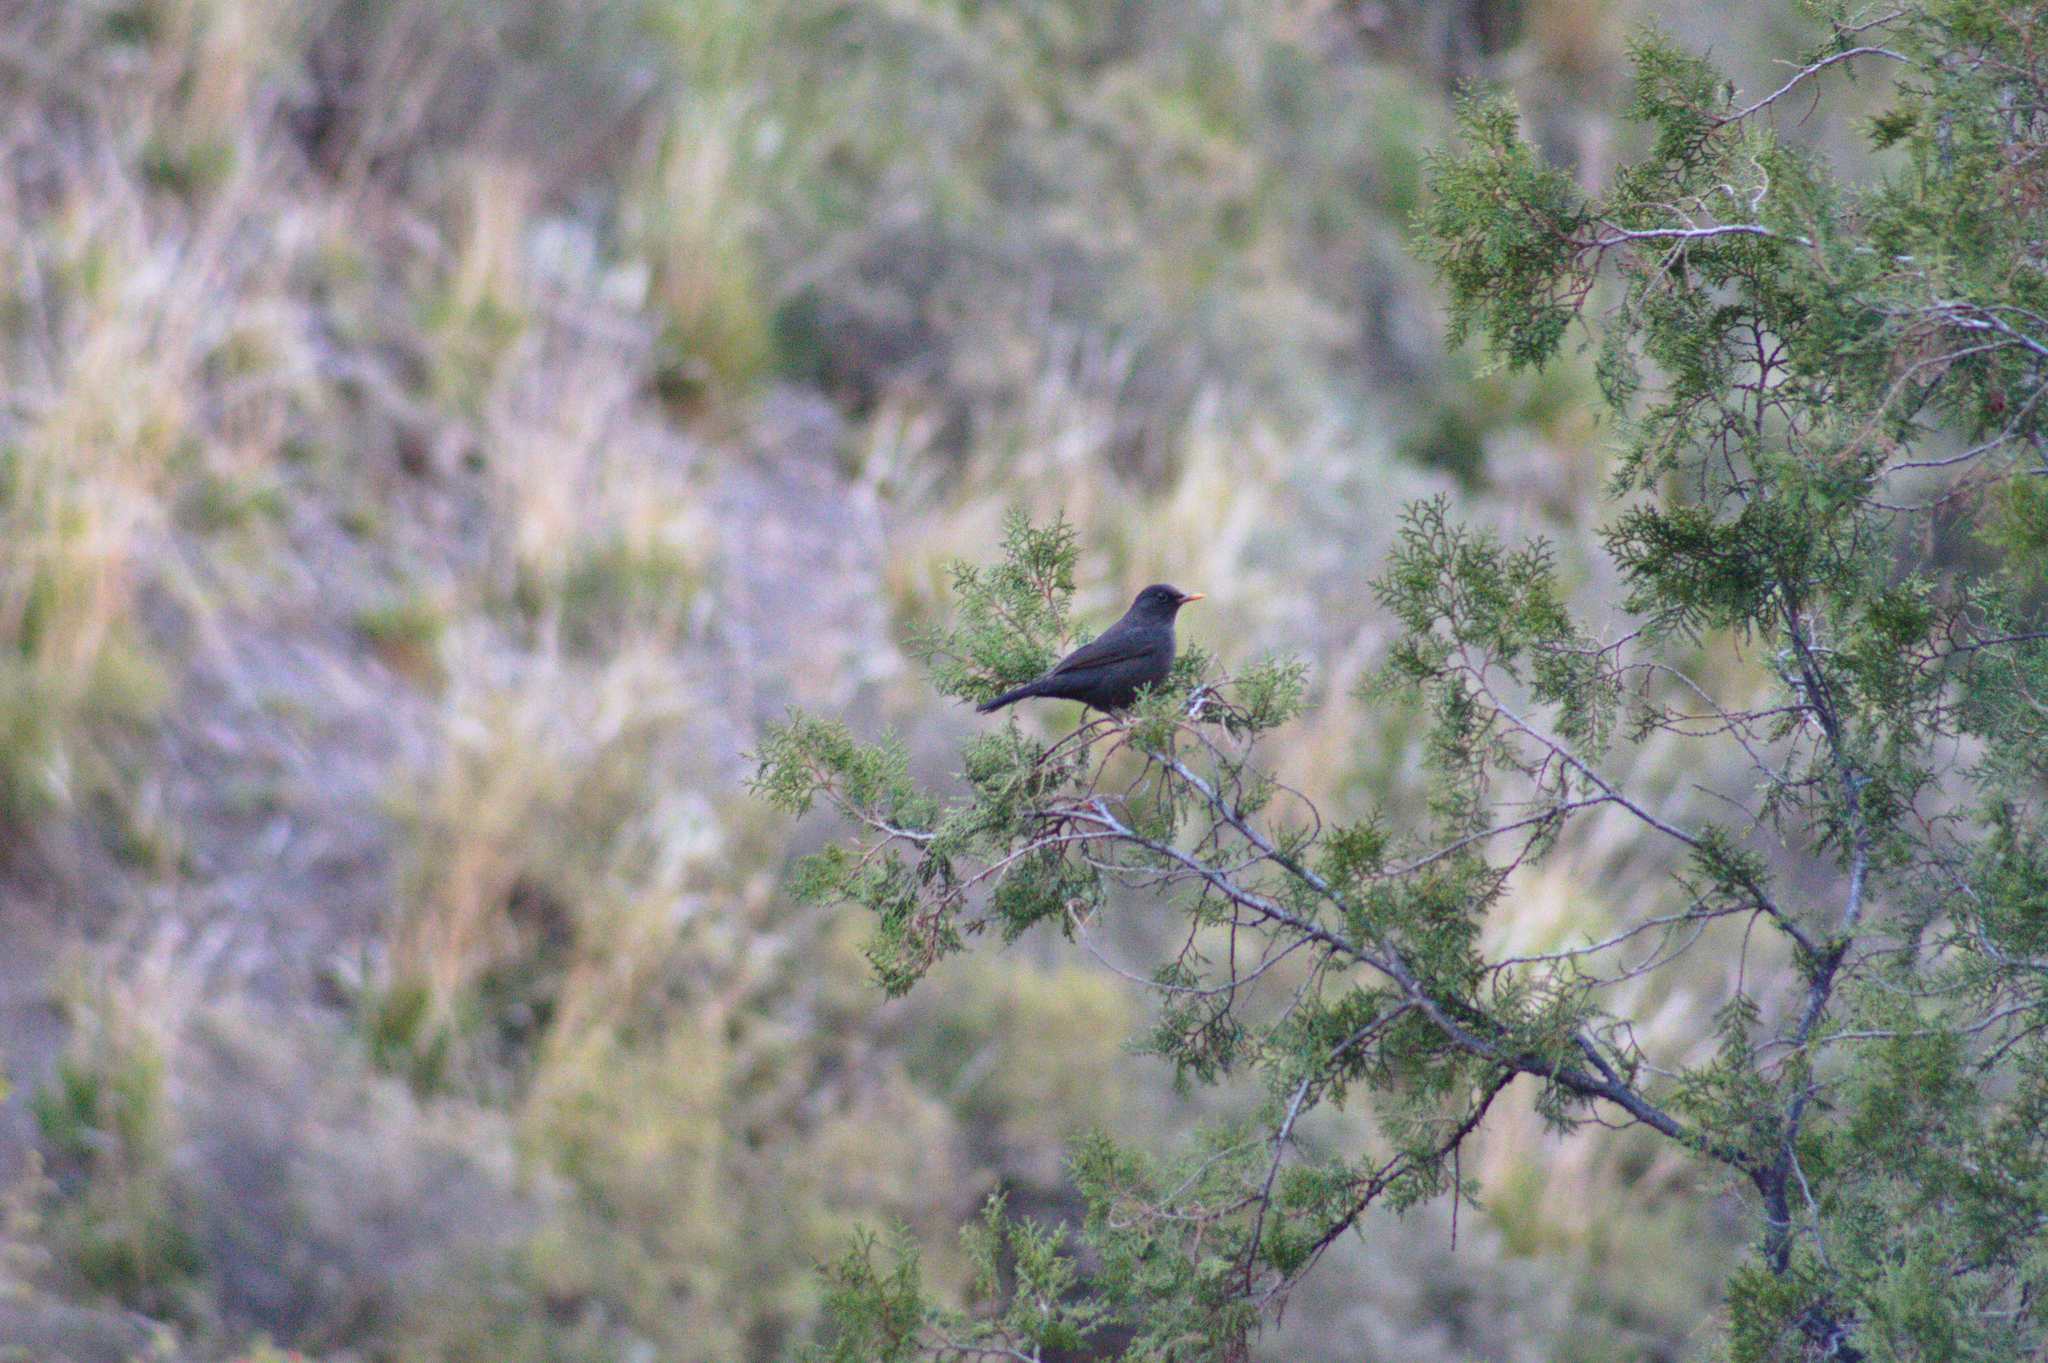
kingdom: Animalia
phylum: Chordata
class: Aves
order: Passeriformes
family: Turdidae
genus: Turdus
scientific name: Turdus chiguanco
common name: Chiguanco thrush
